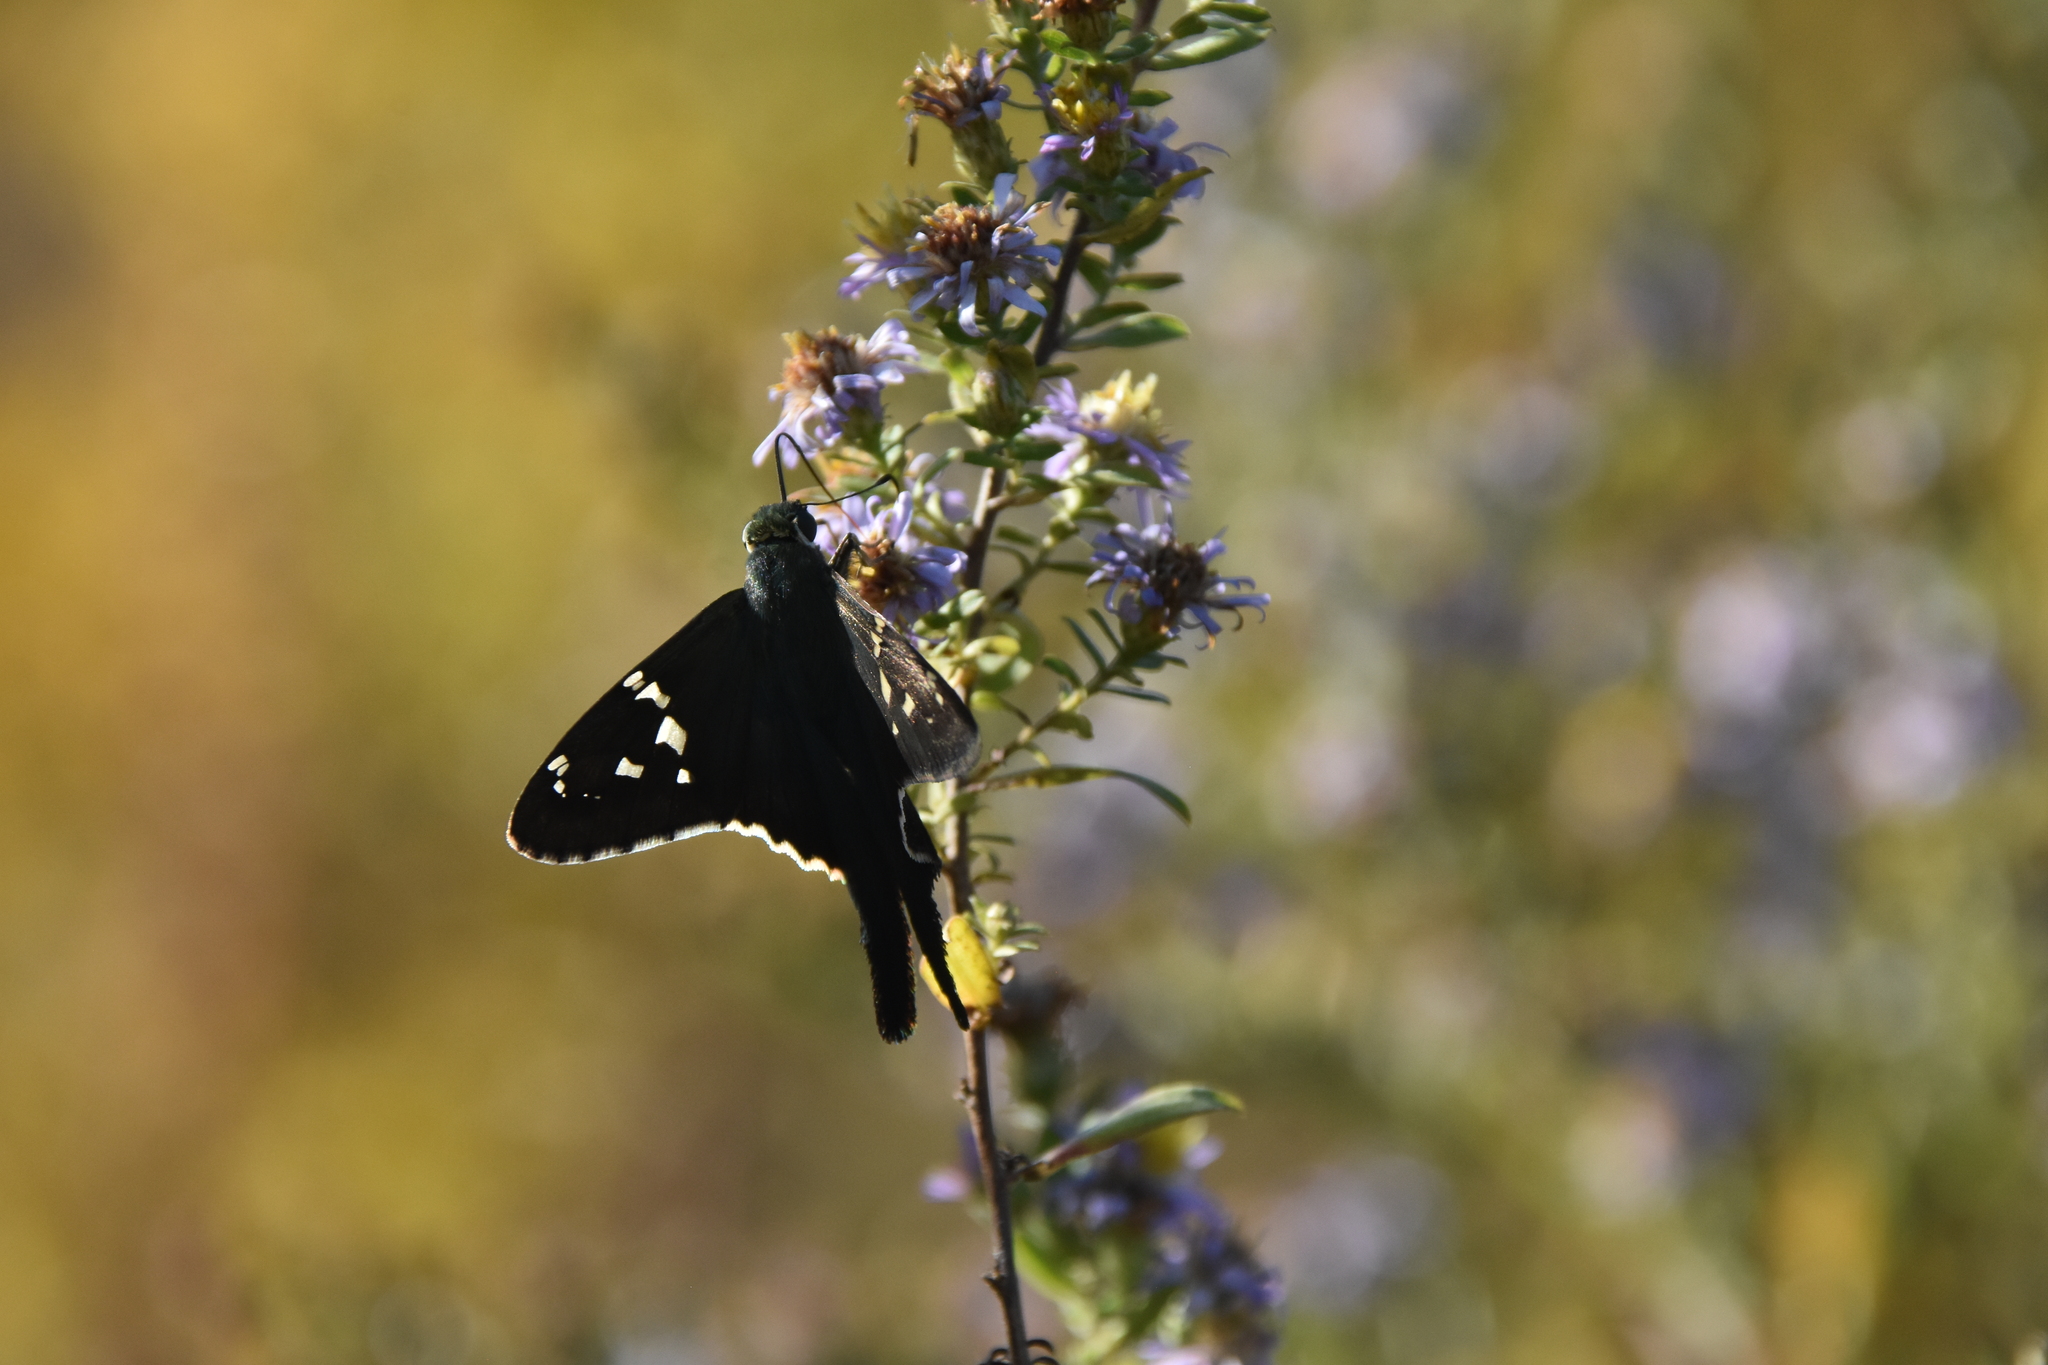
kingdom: Animalia
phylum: Arthropoda
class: Insecta
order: Lepidoptera
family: Hesperiidae
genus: Urbanus
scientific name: Urbanus proteus
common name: Long-tailed skipper
